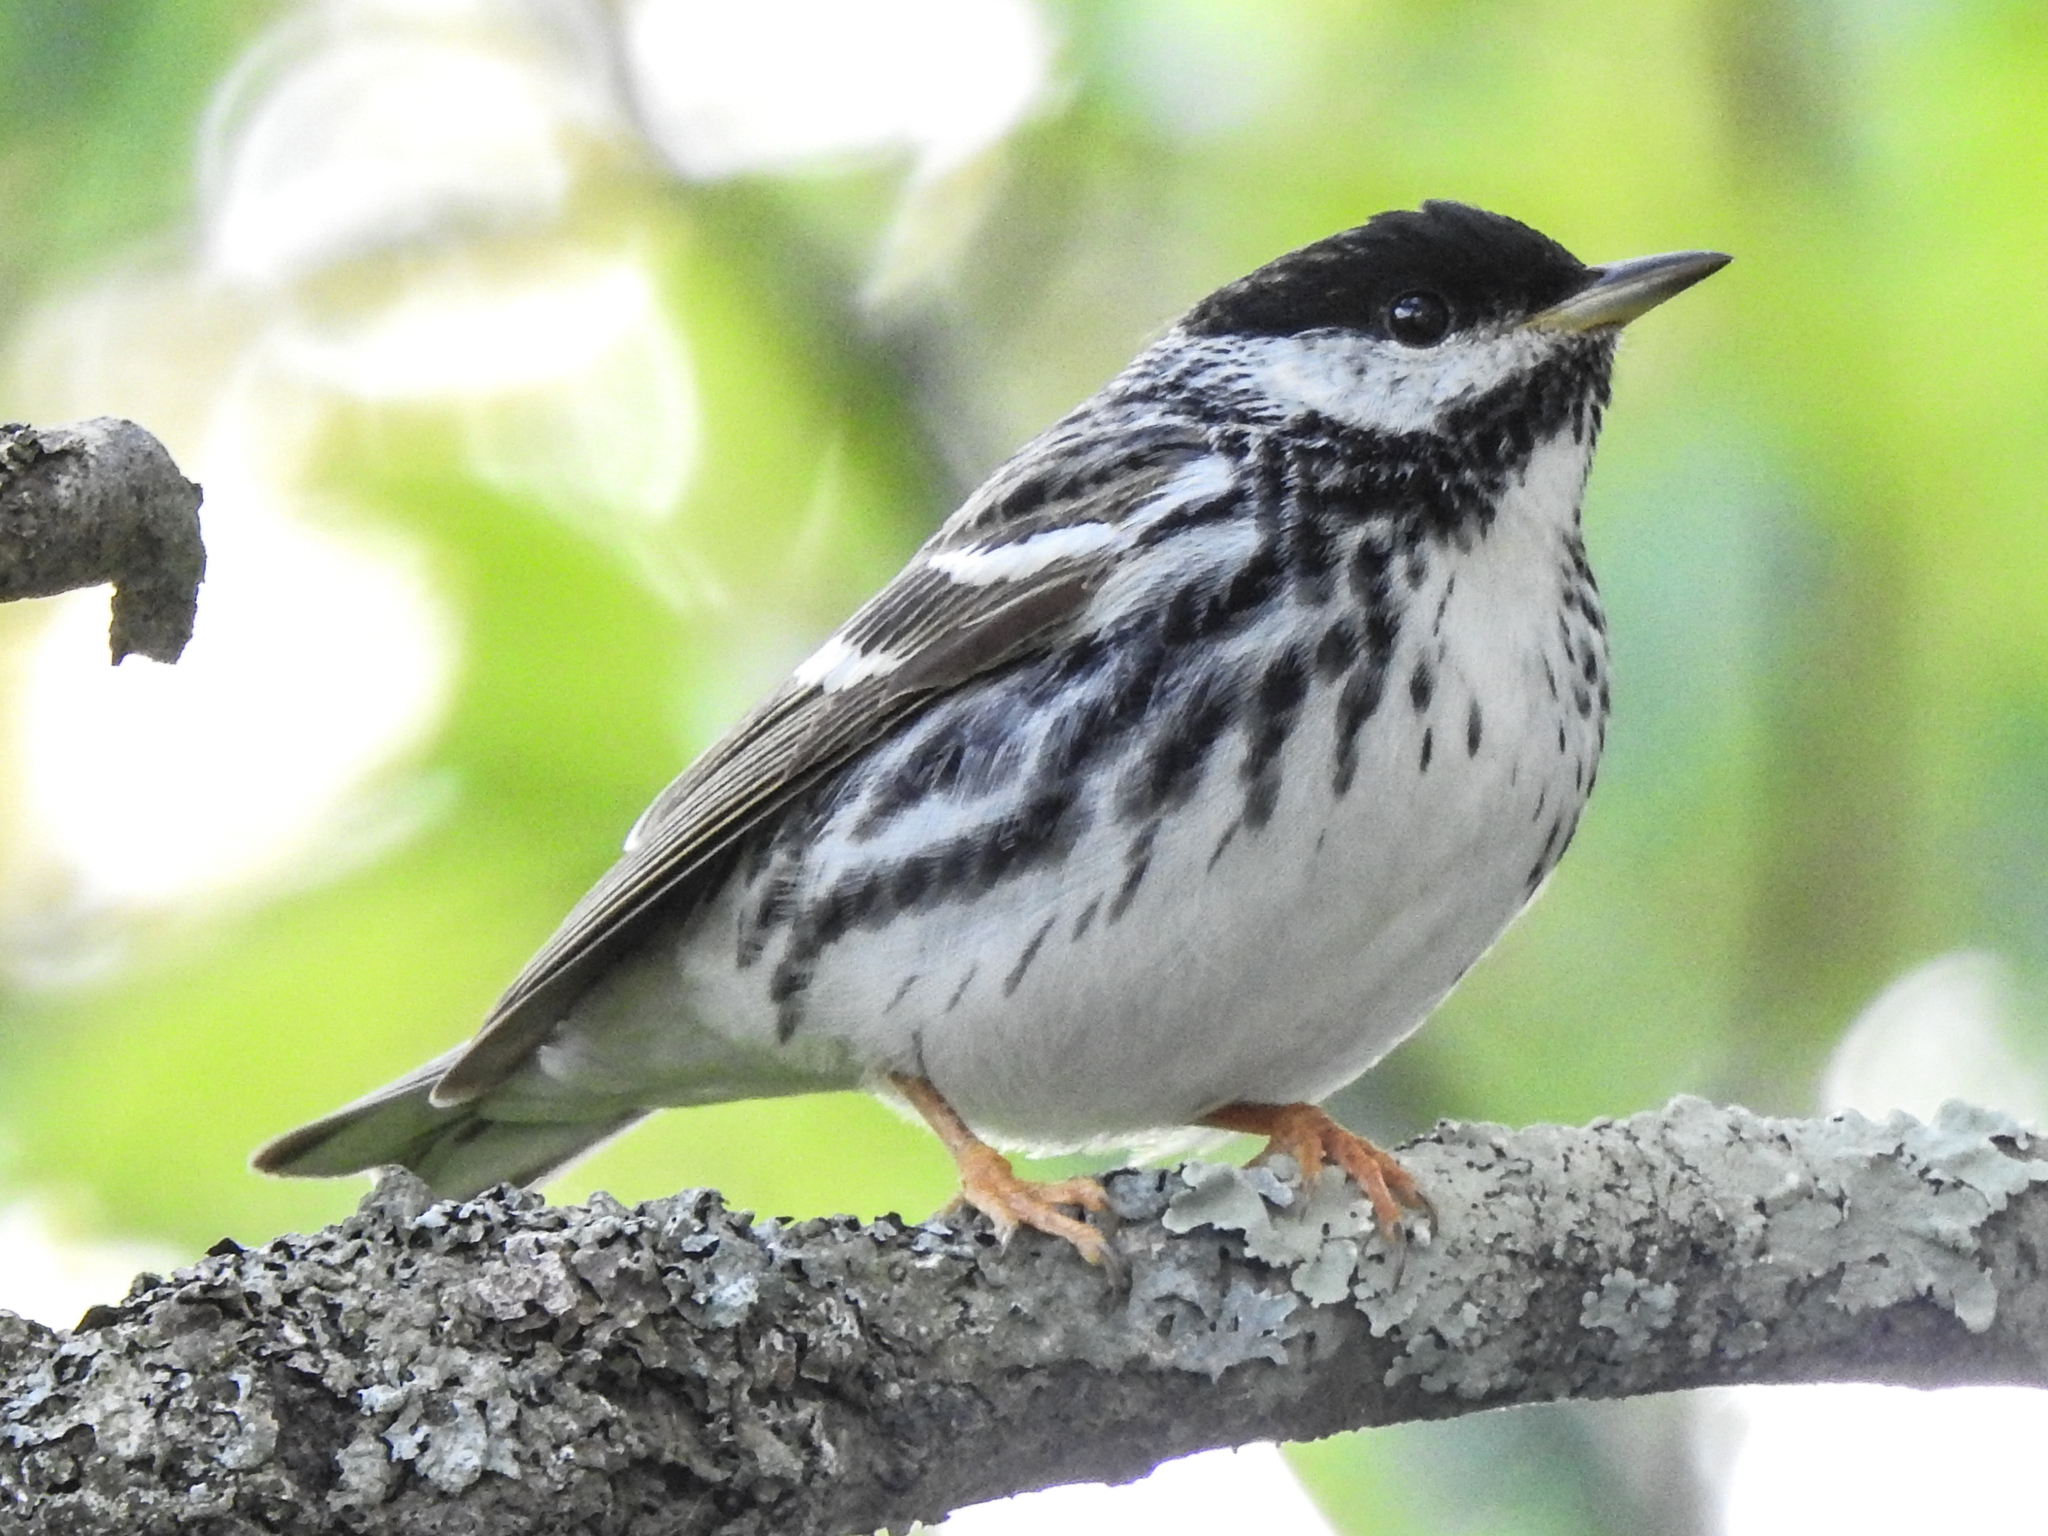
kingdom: Animalia
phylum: Chordata
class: Aves
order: Passeriformes
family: Parulidae
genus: Setophaga
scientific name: Setophaga striata
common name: Blackpoll warbler
